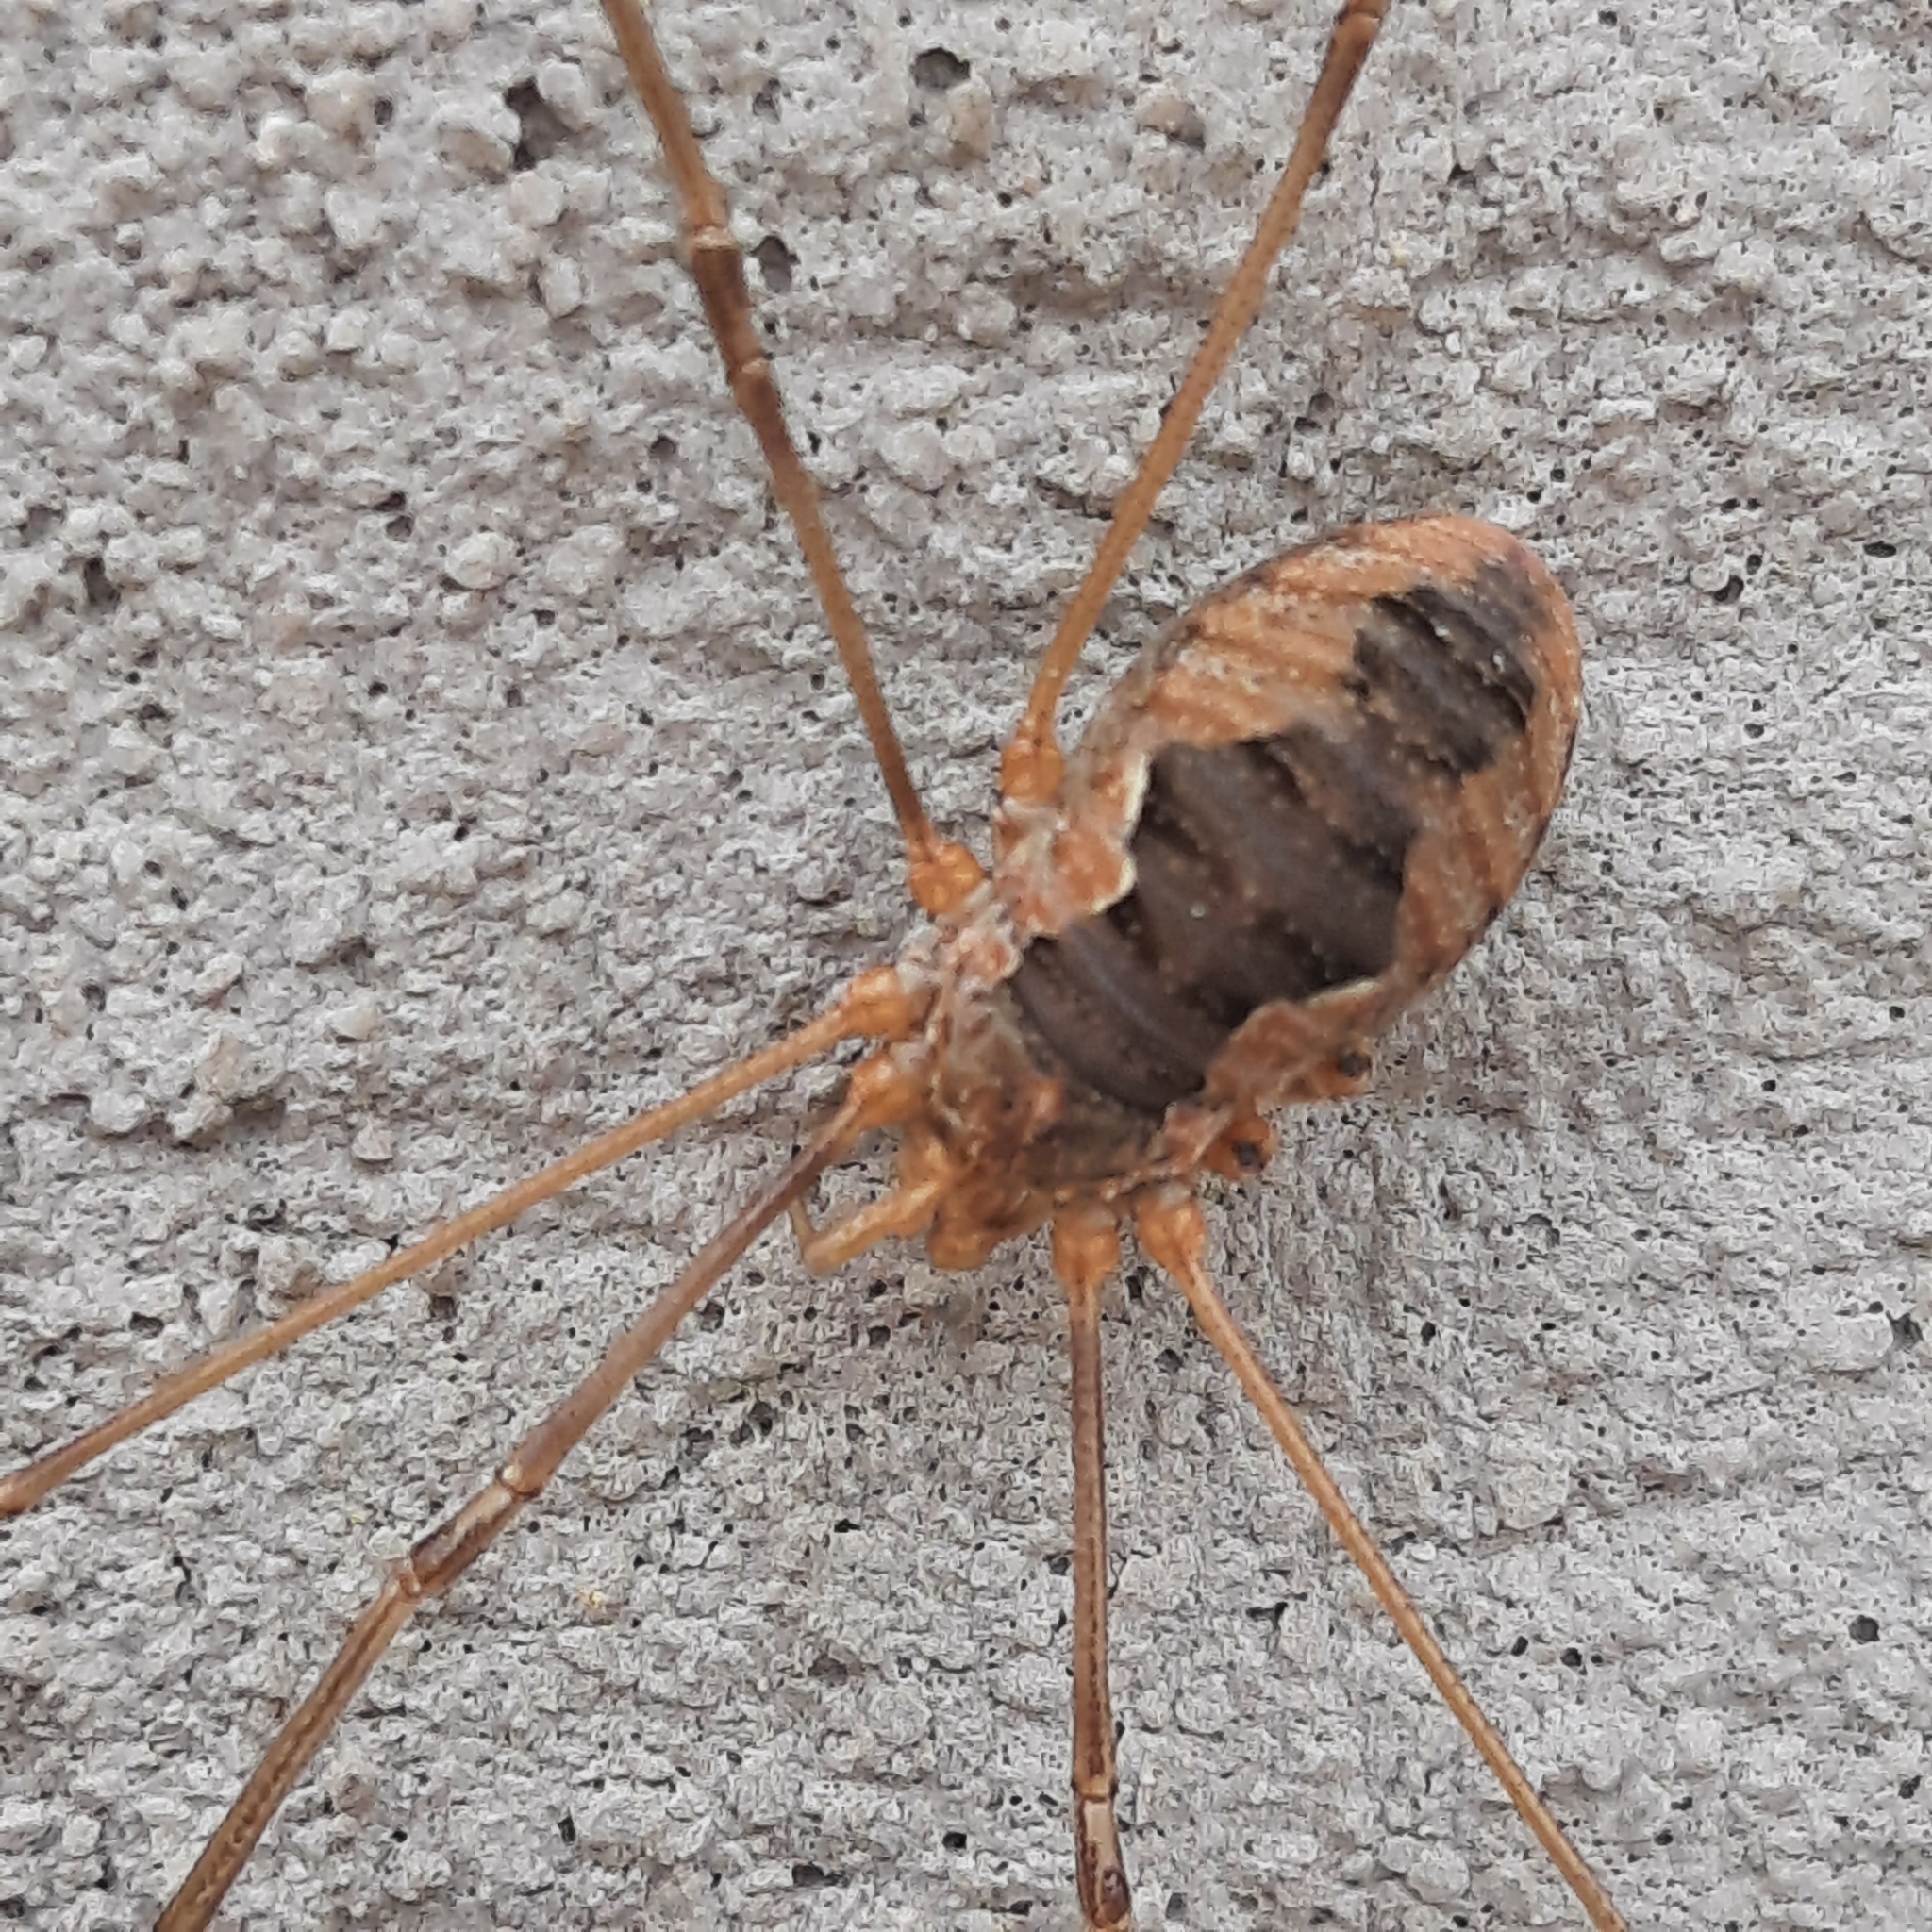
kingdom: Animalia
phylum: Arthropoda
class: Arachnida
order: Opiliones
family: Phalangiidae
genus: Phalangium
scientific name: Phalangium opilio
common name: Daddy longleg
